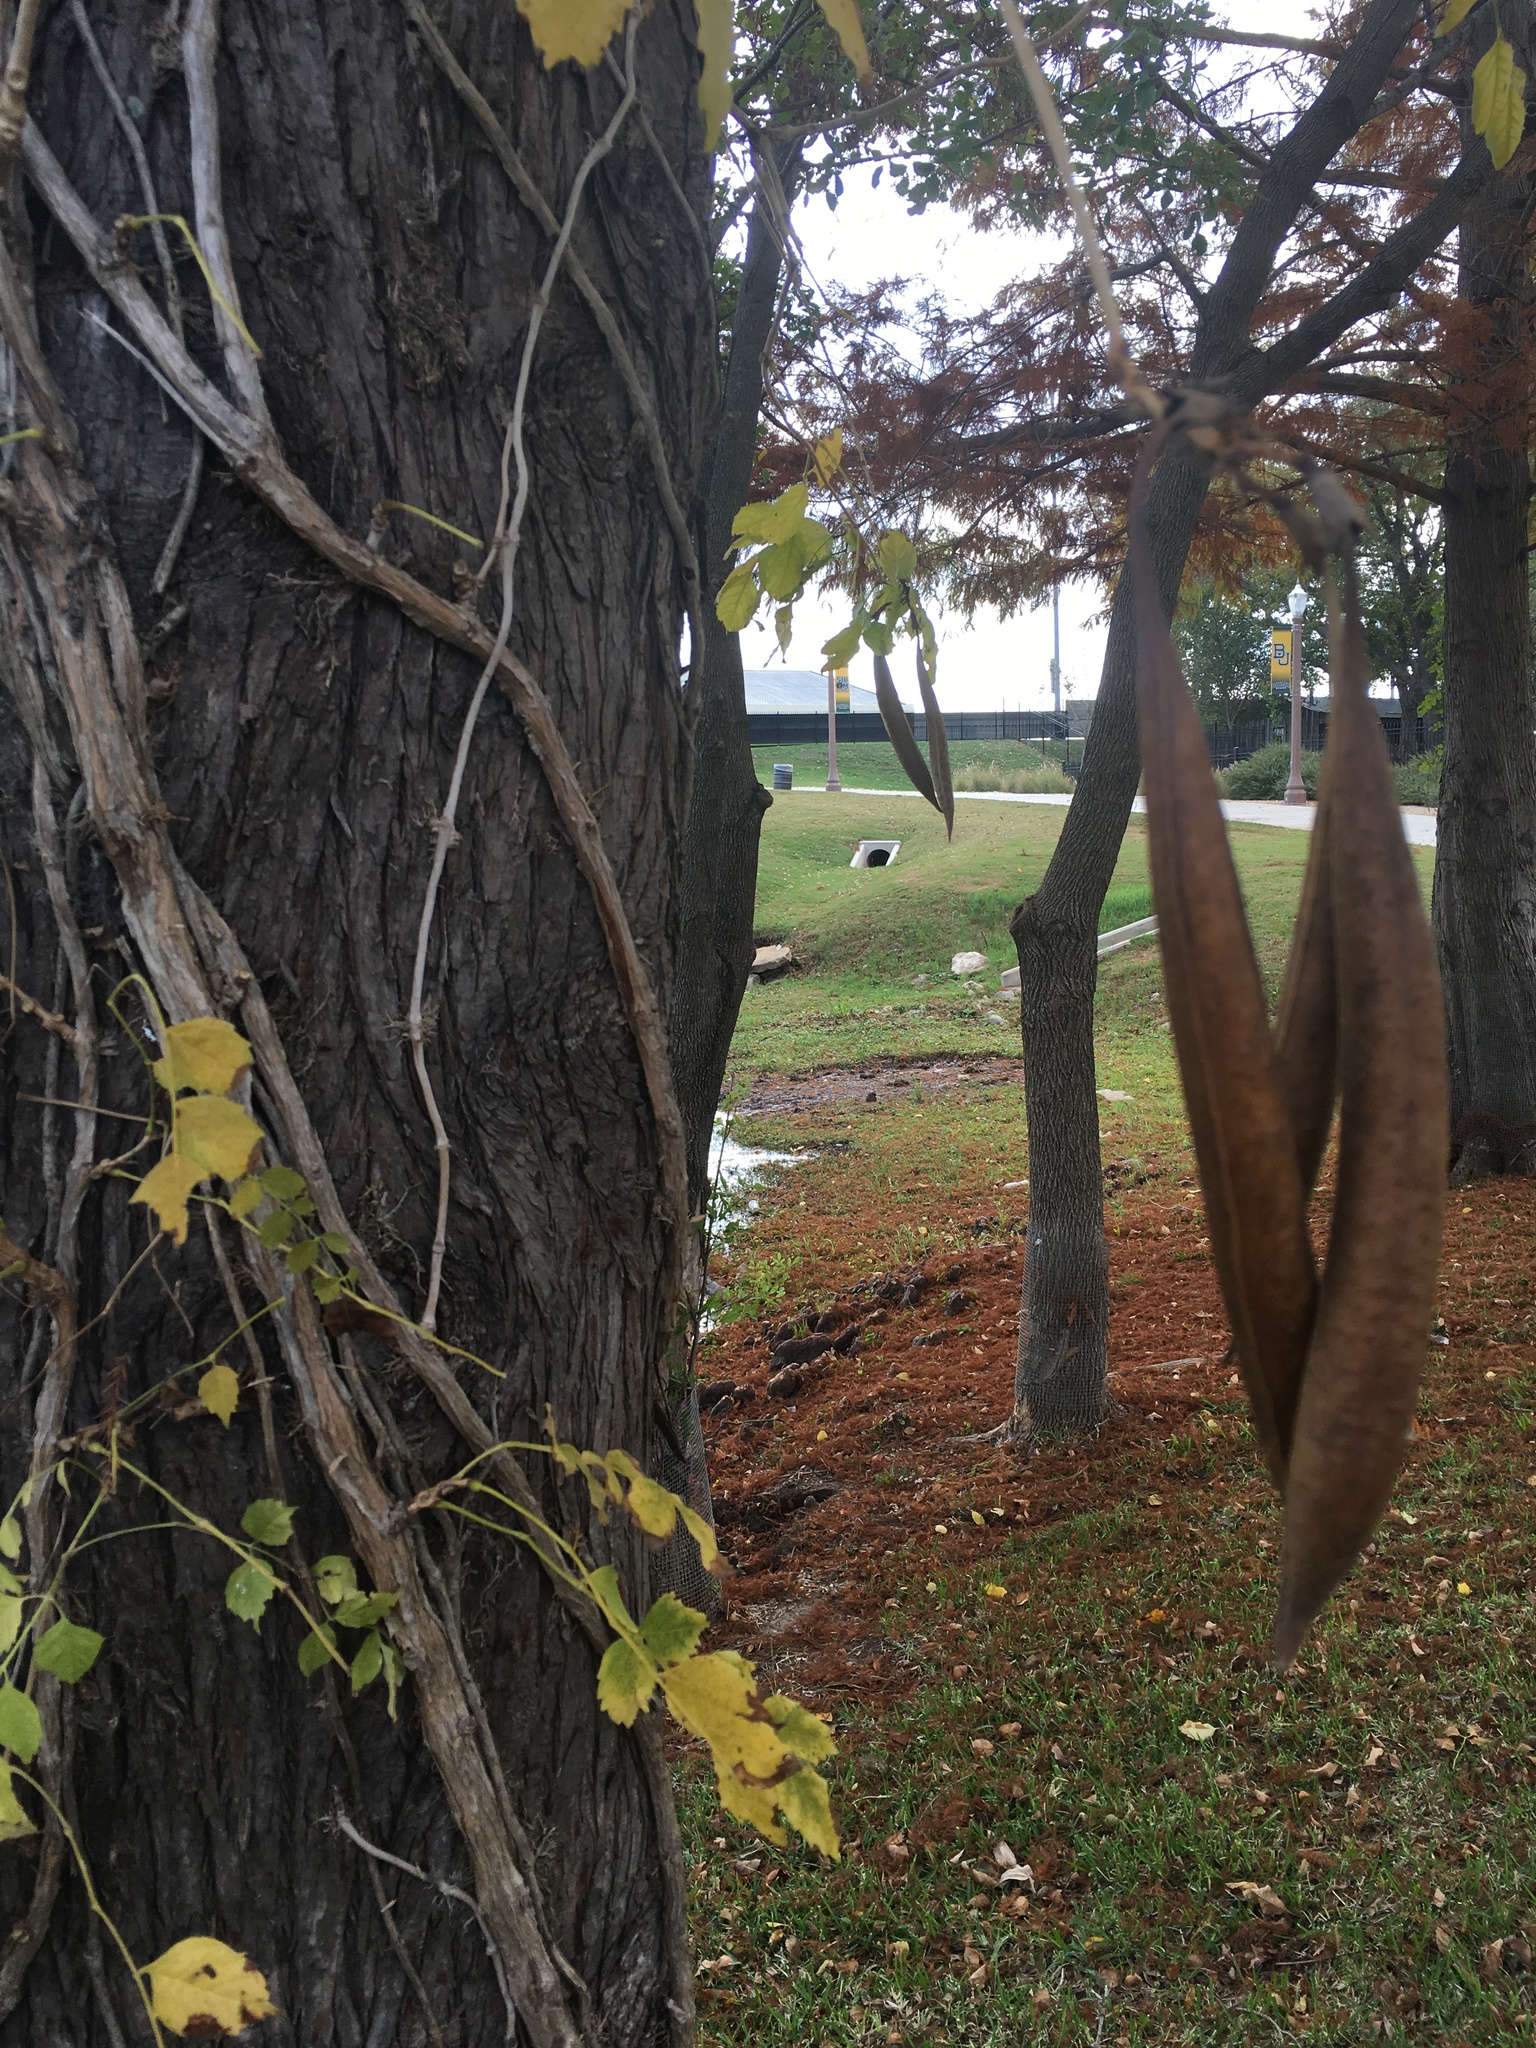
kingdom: Plantae
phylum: Tracheophyta
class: Magnoliopsida
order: Lamiales
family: Bignoniaceae
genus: Campsis
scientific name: Campsis radicans
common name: Trumpet-creeper
